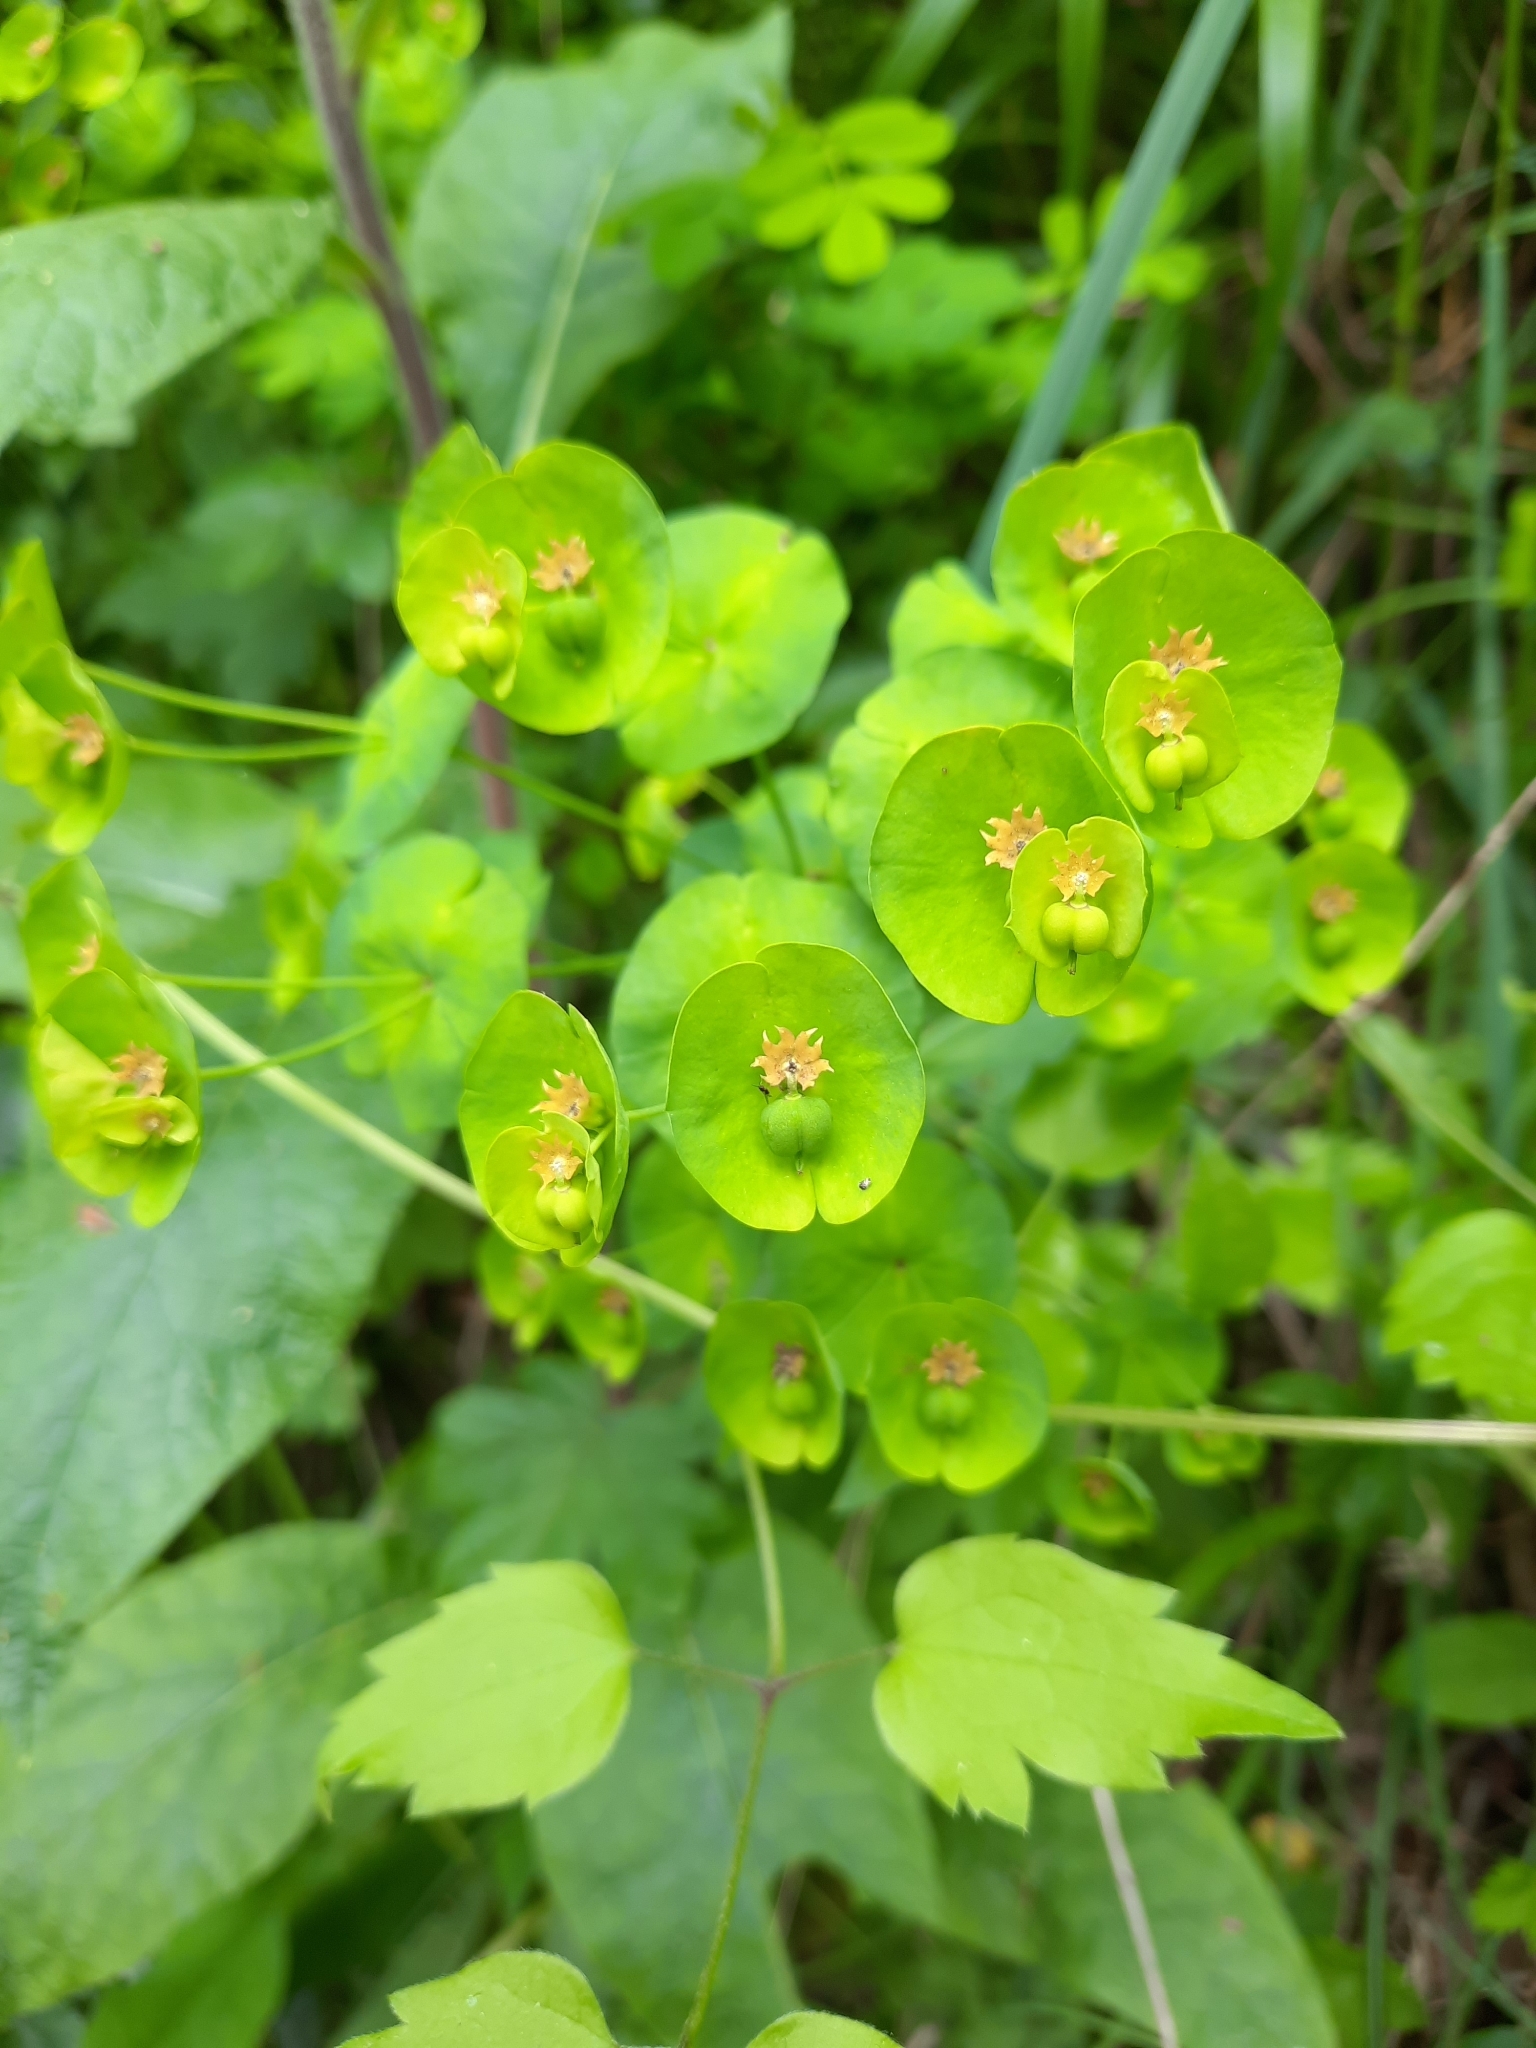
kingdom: Plantae
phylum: Tracheophyta
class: Magnoliopsida
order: Malpighiales
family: Euphorbiaceae
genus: Euphorbia
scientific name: Euphorbia amygdaloides
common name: Wood spurge
